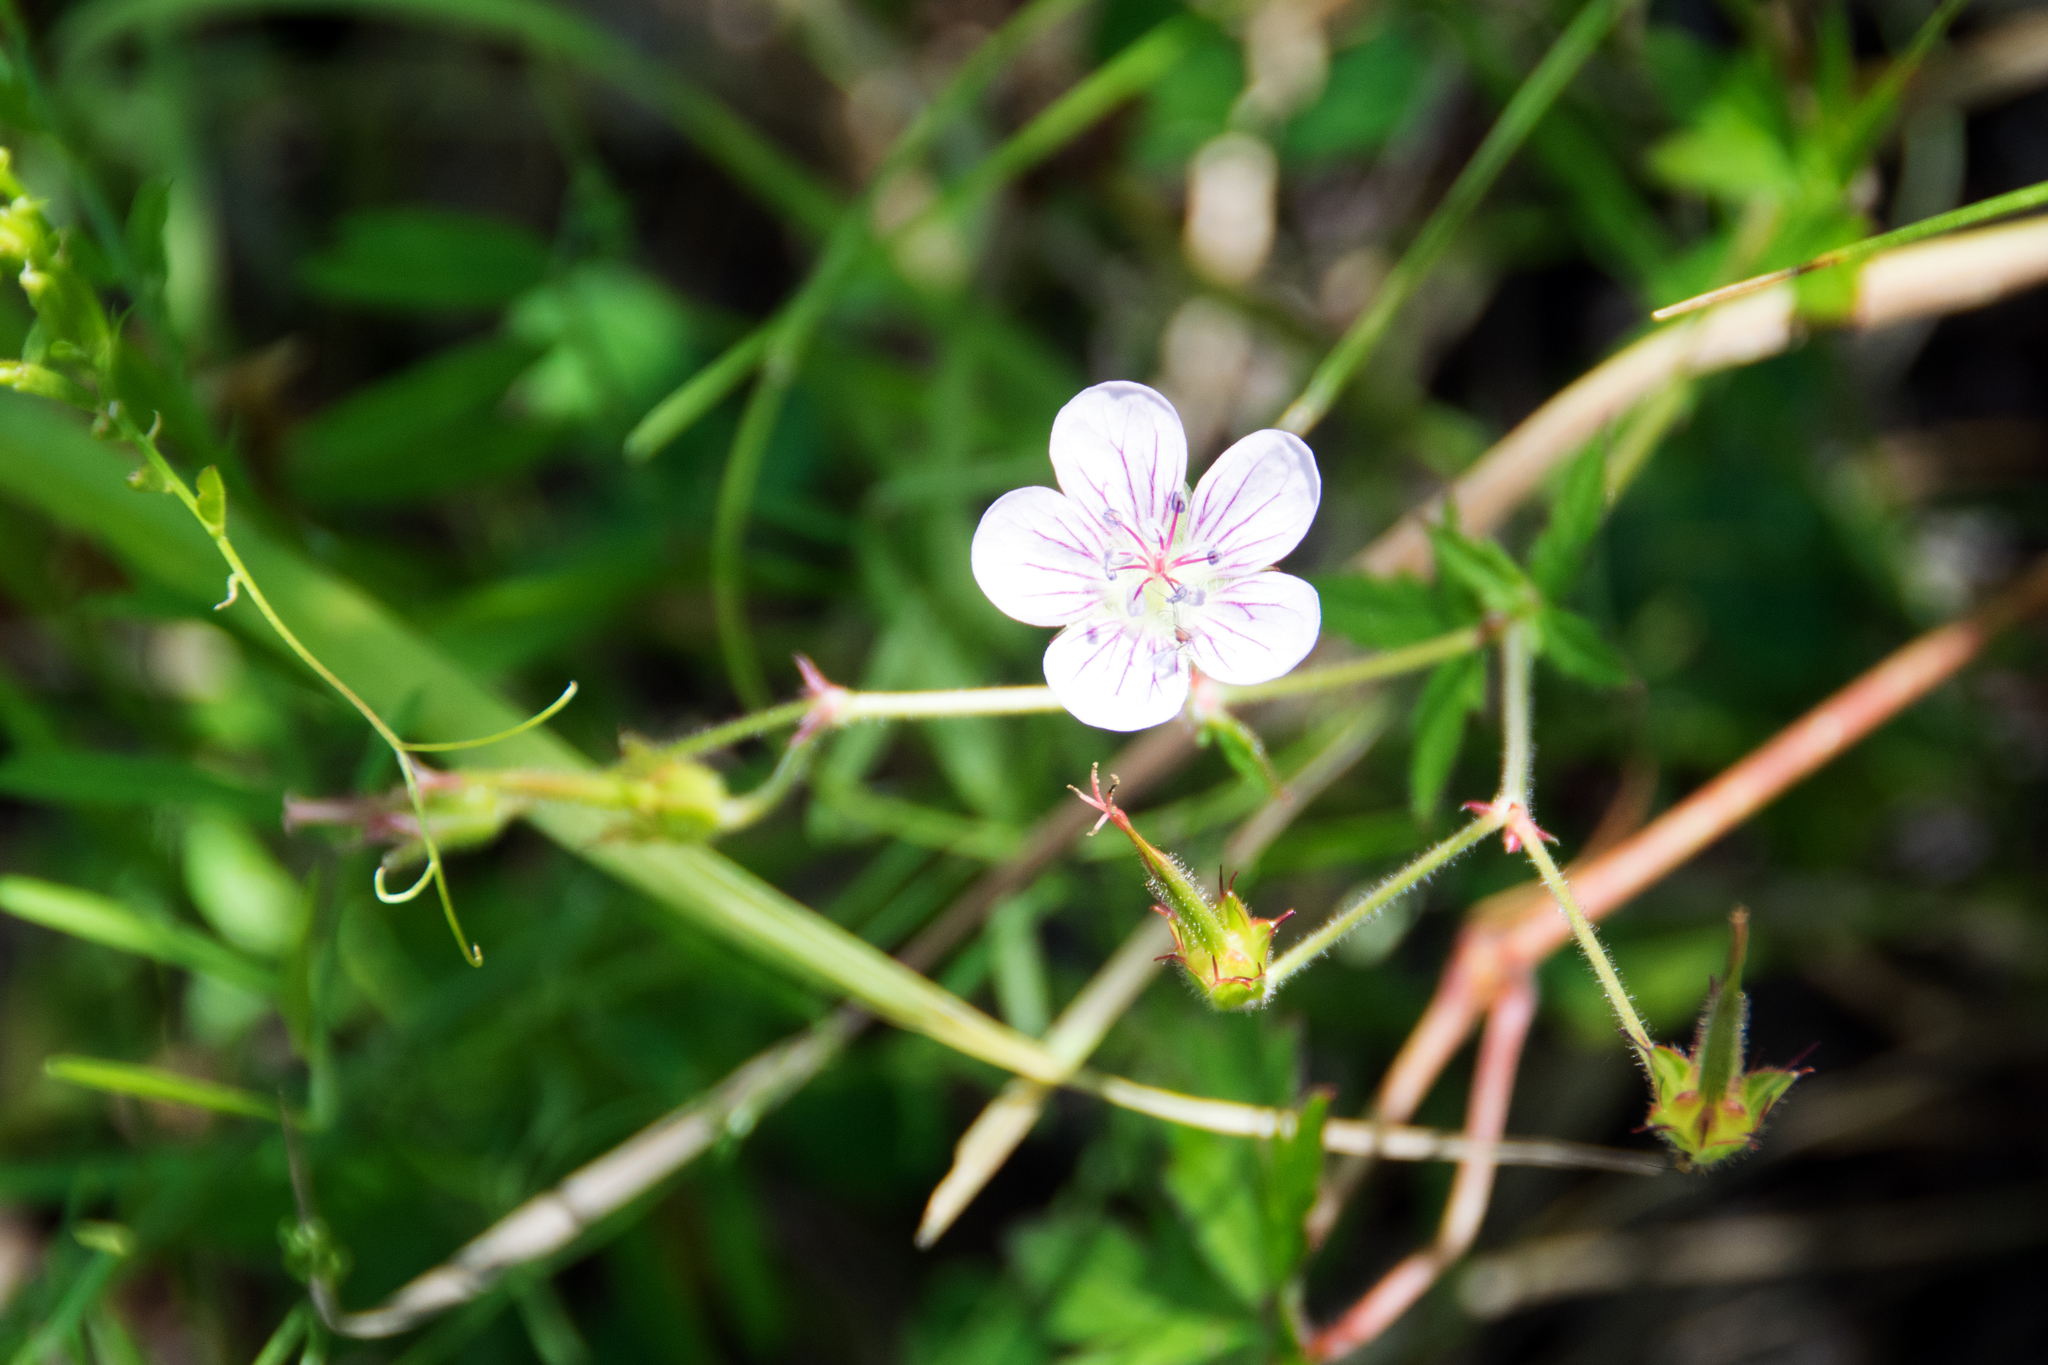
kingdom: Plantae
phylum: Tracheophyta
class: Magnoliopsida
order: Geraniales
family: Geraniaceae
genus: Geranium
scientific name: Geranium richardsonii
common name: Richardson's crane's-bill
